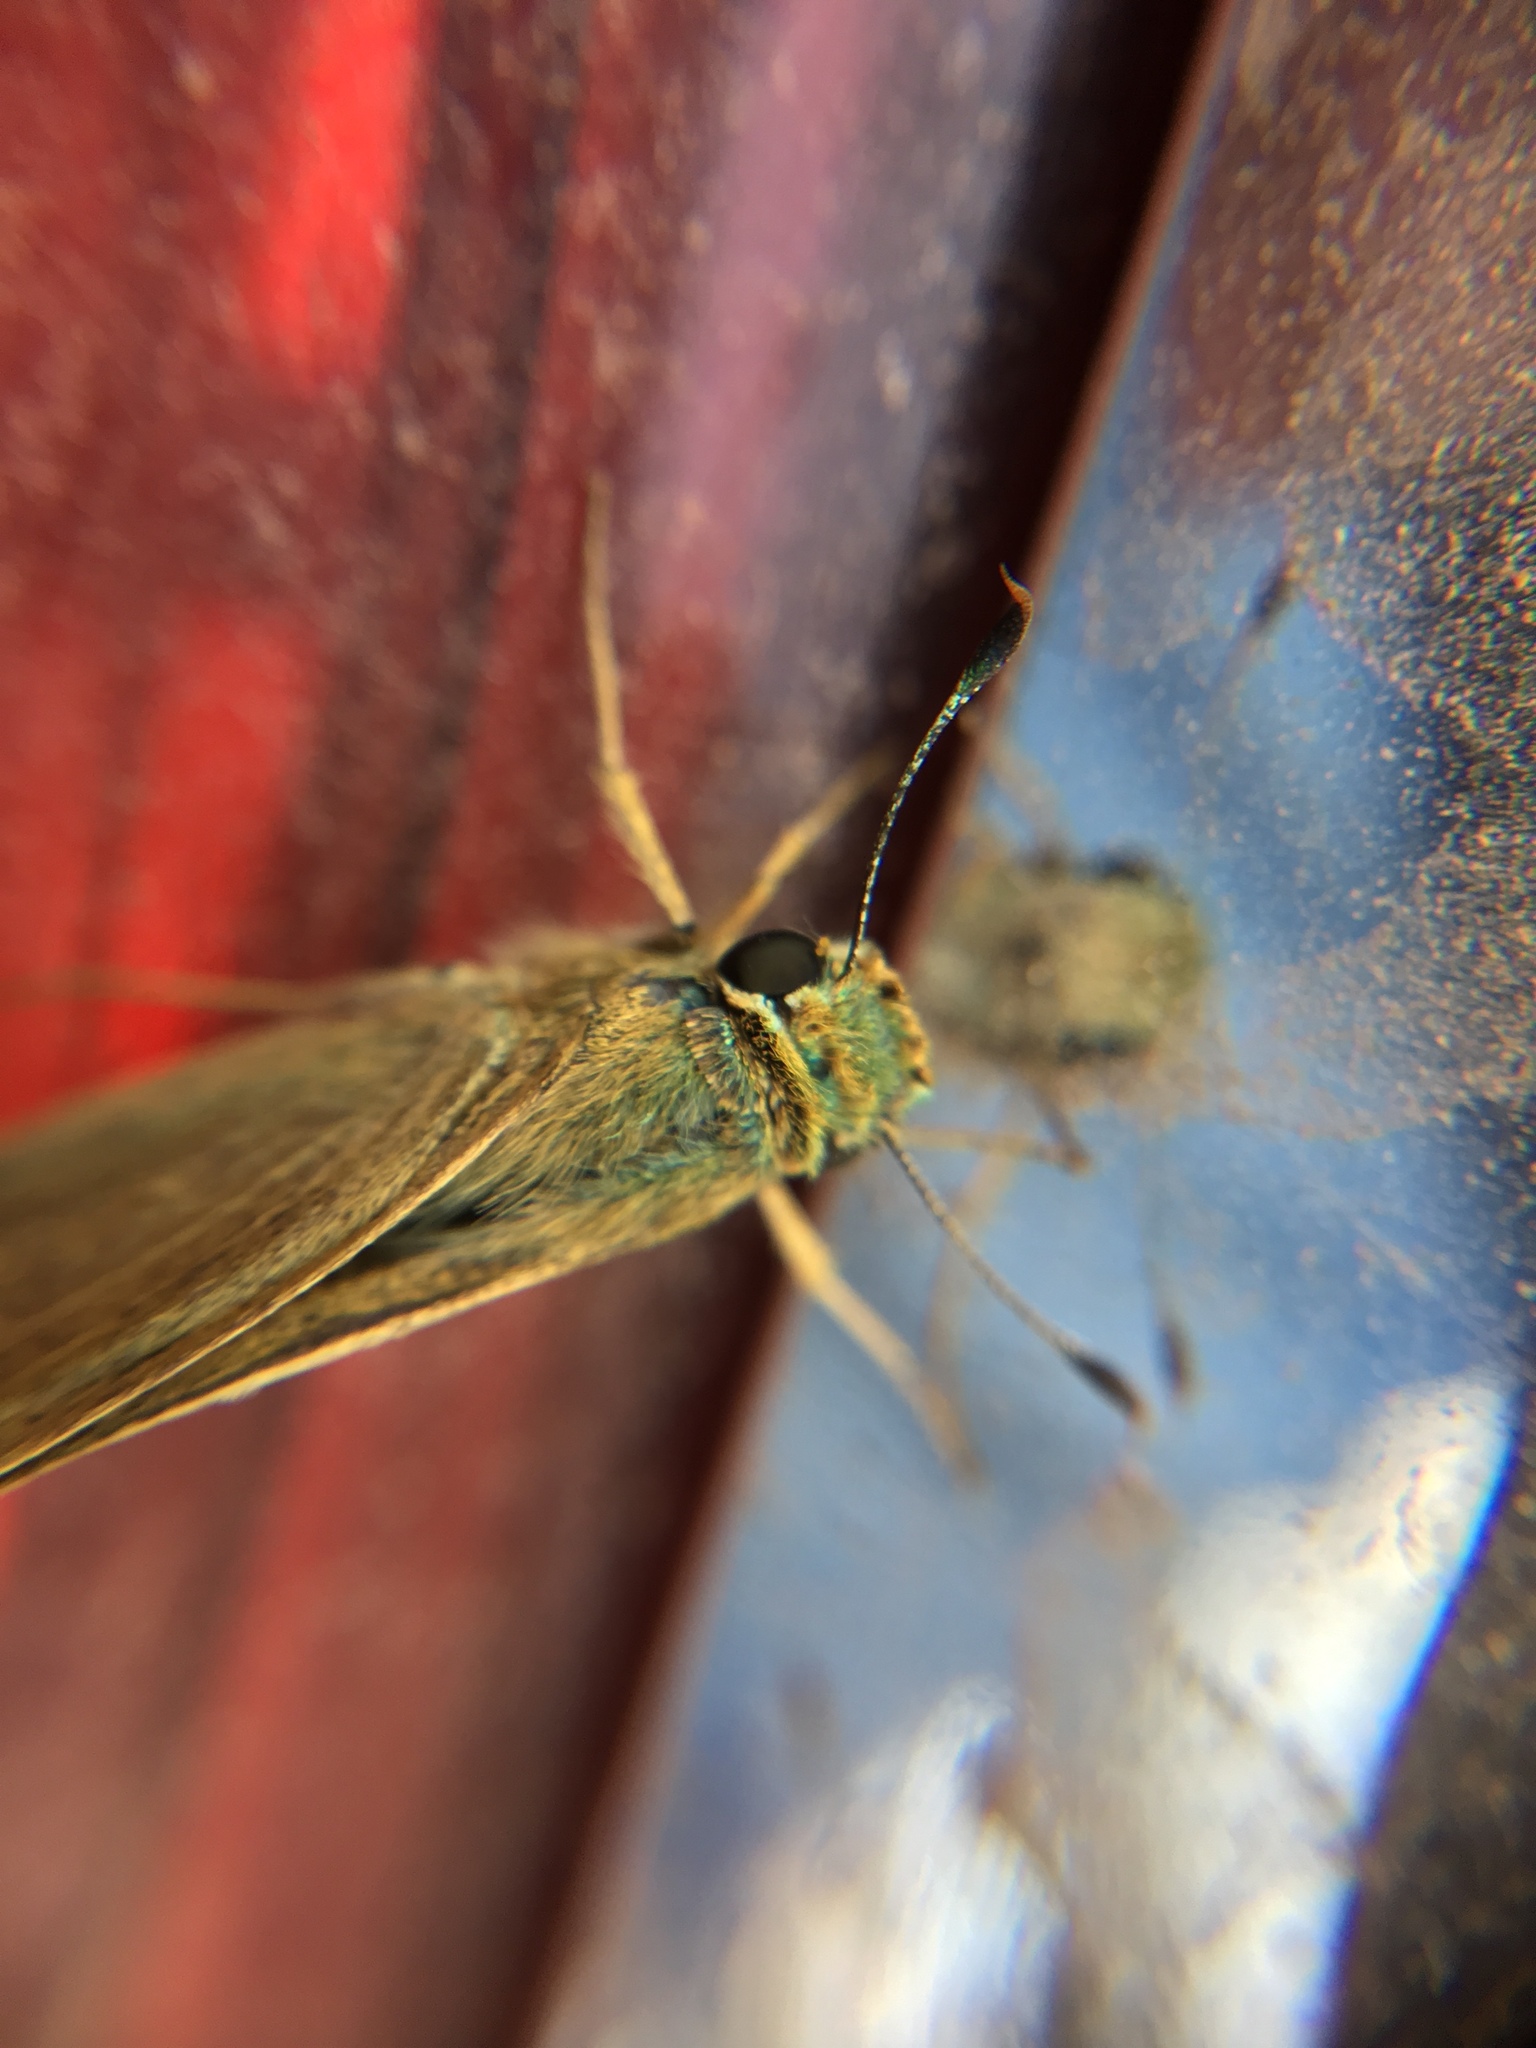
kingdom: Animalia
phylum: Arthropoda
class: Insecta
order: Lepidoptera
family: Hesperiidae
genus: Parnara
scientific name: Parnara guttatus
